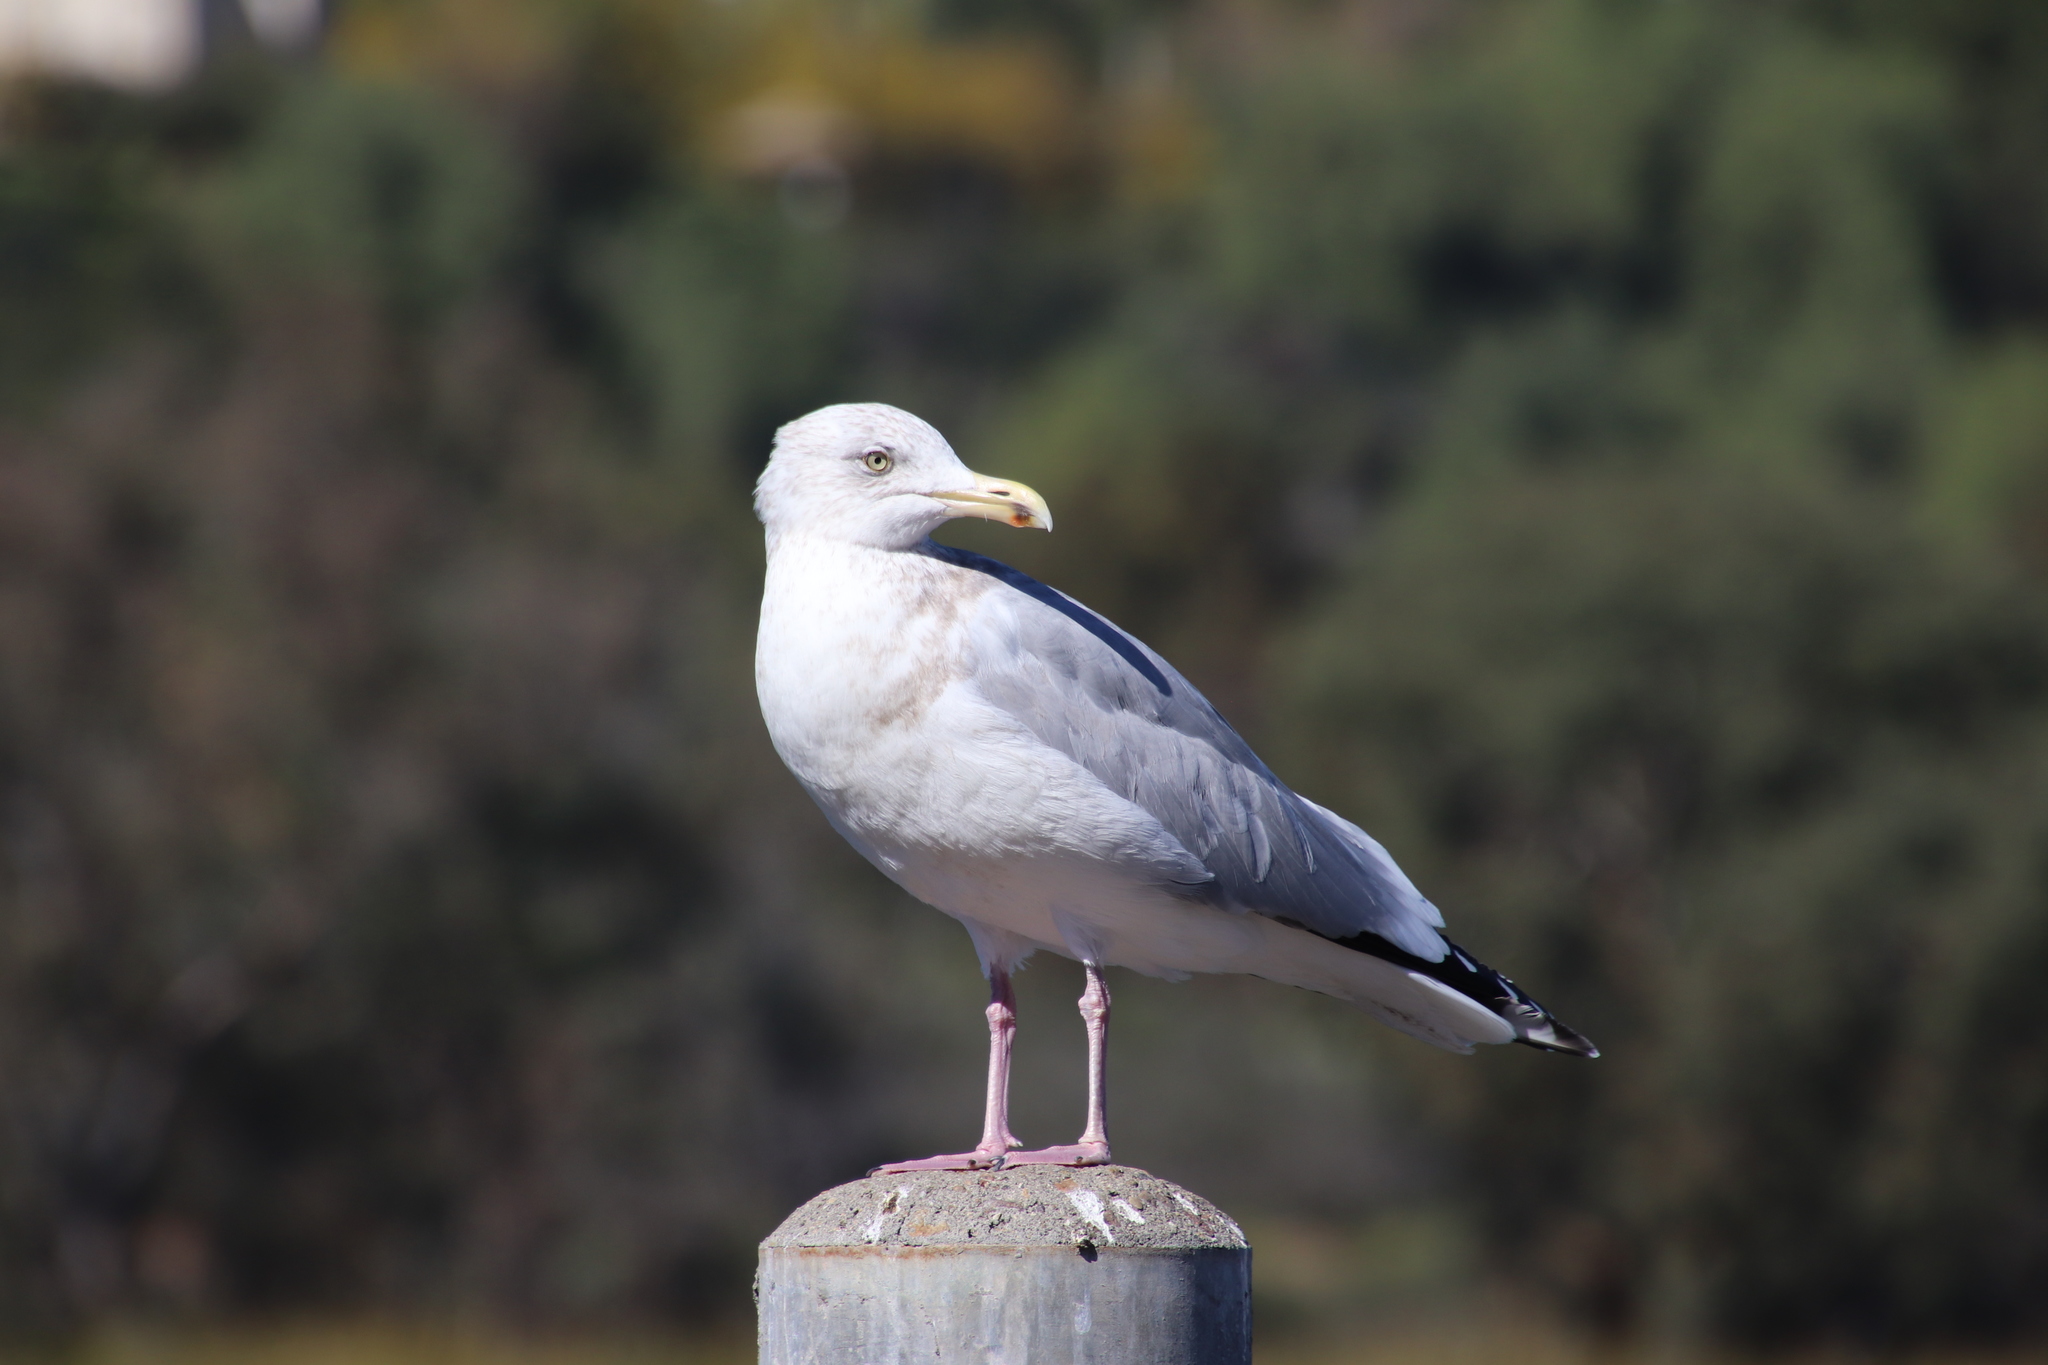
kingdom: Animalia
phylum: Chordata
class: Aves
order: Charadriiformes
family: Laridae
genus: Larus
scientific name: Larus argentatus
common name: Herring gull
